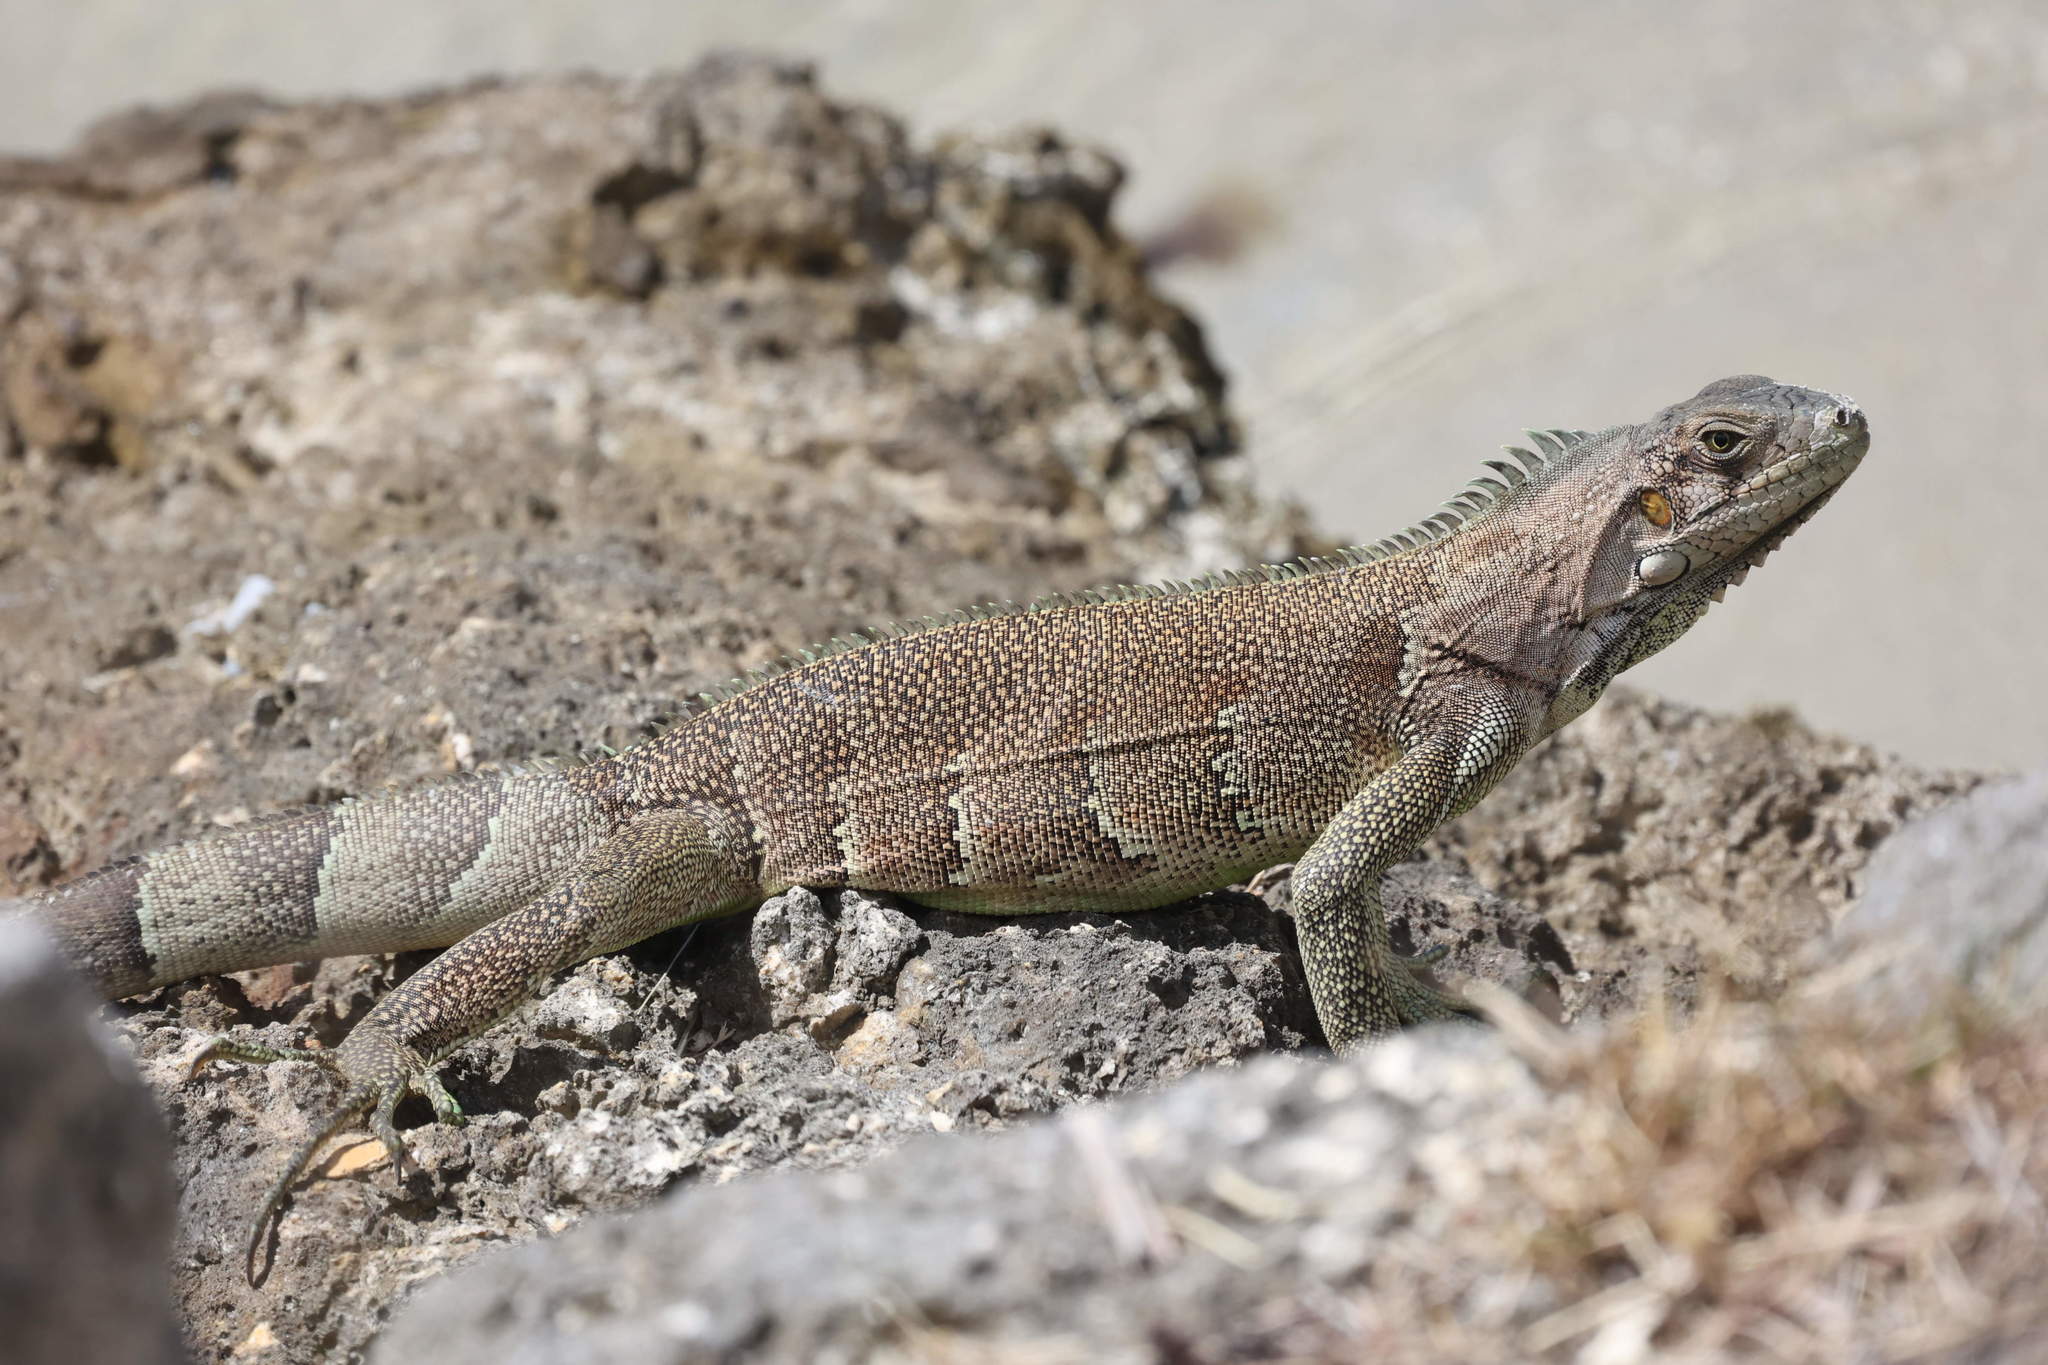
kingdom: Animalia
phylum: Chordata
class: Squamata
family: Iguanidae
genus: Iguana
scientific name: Iguana iguana
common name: Green iguana
